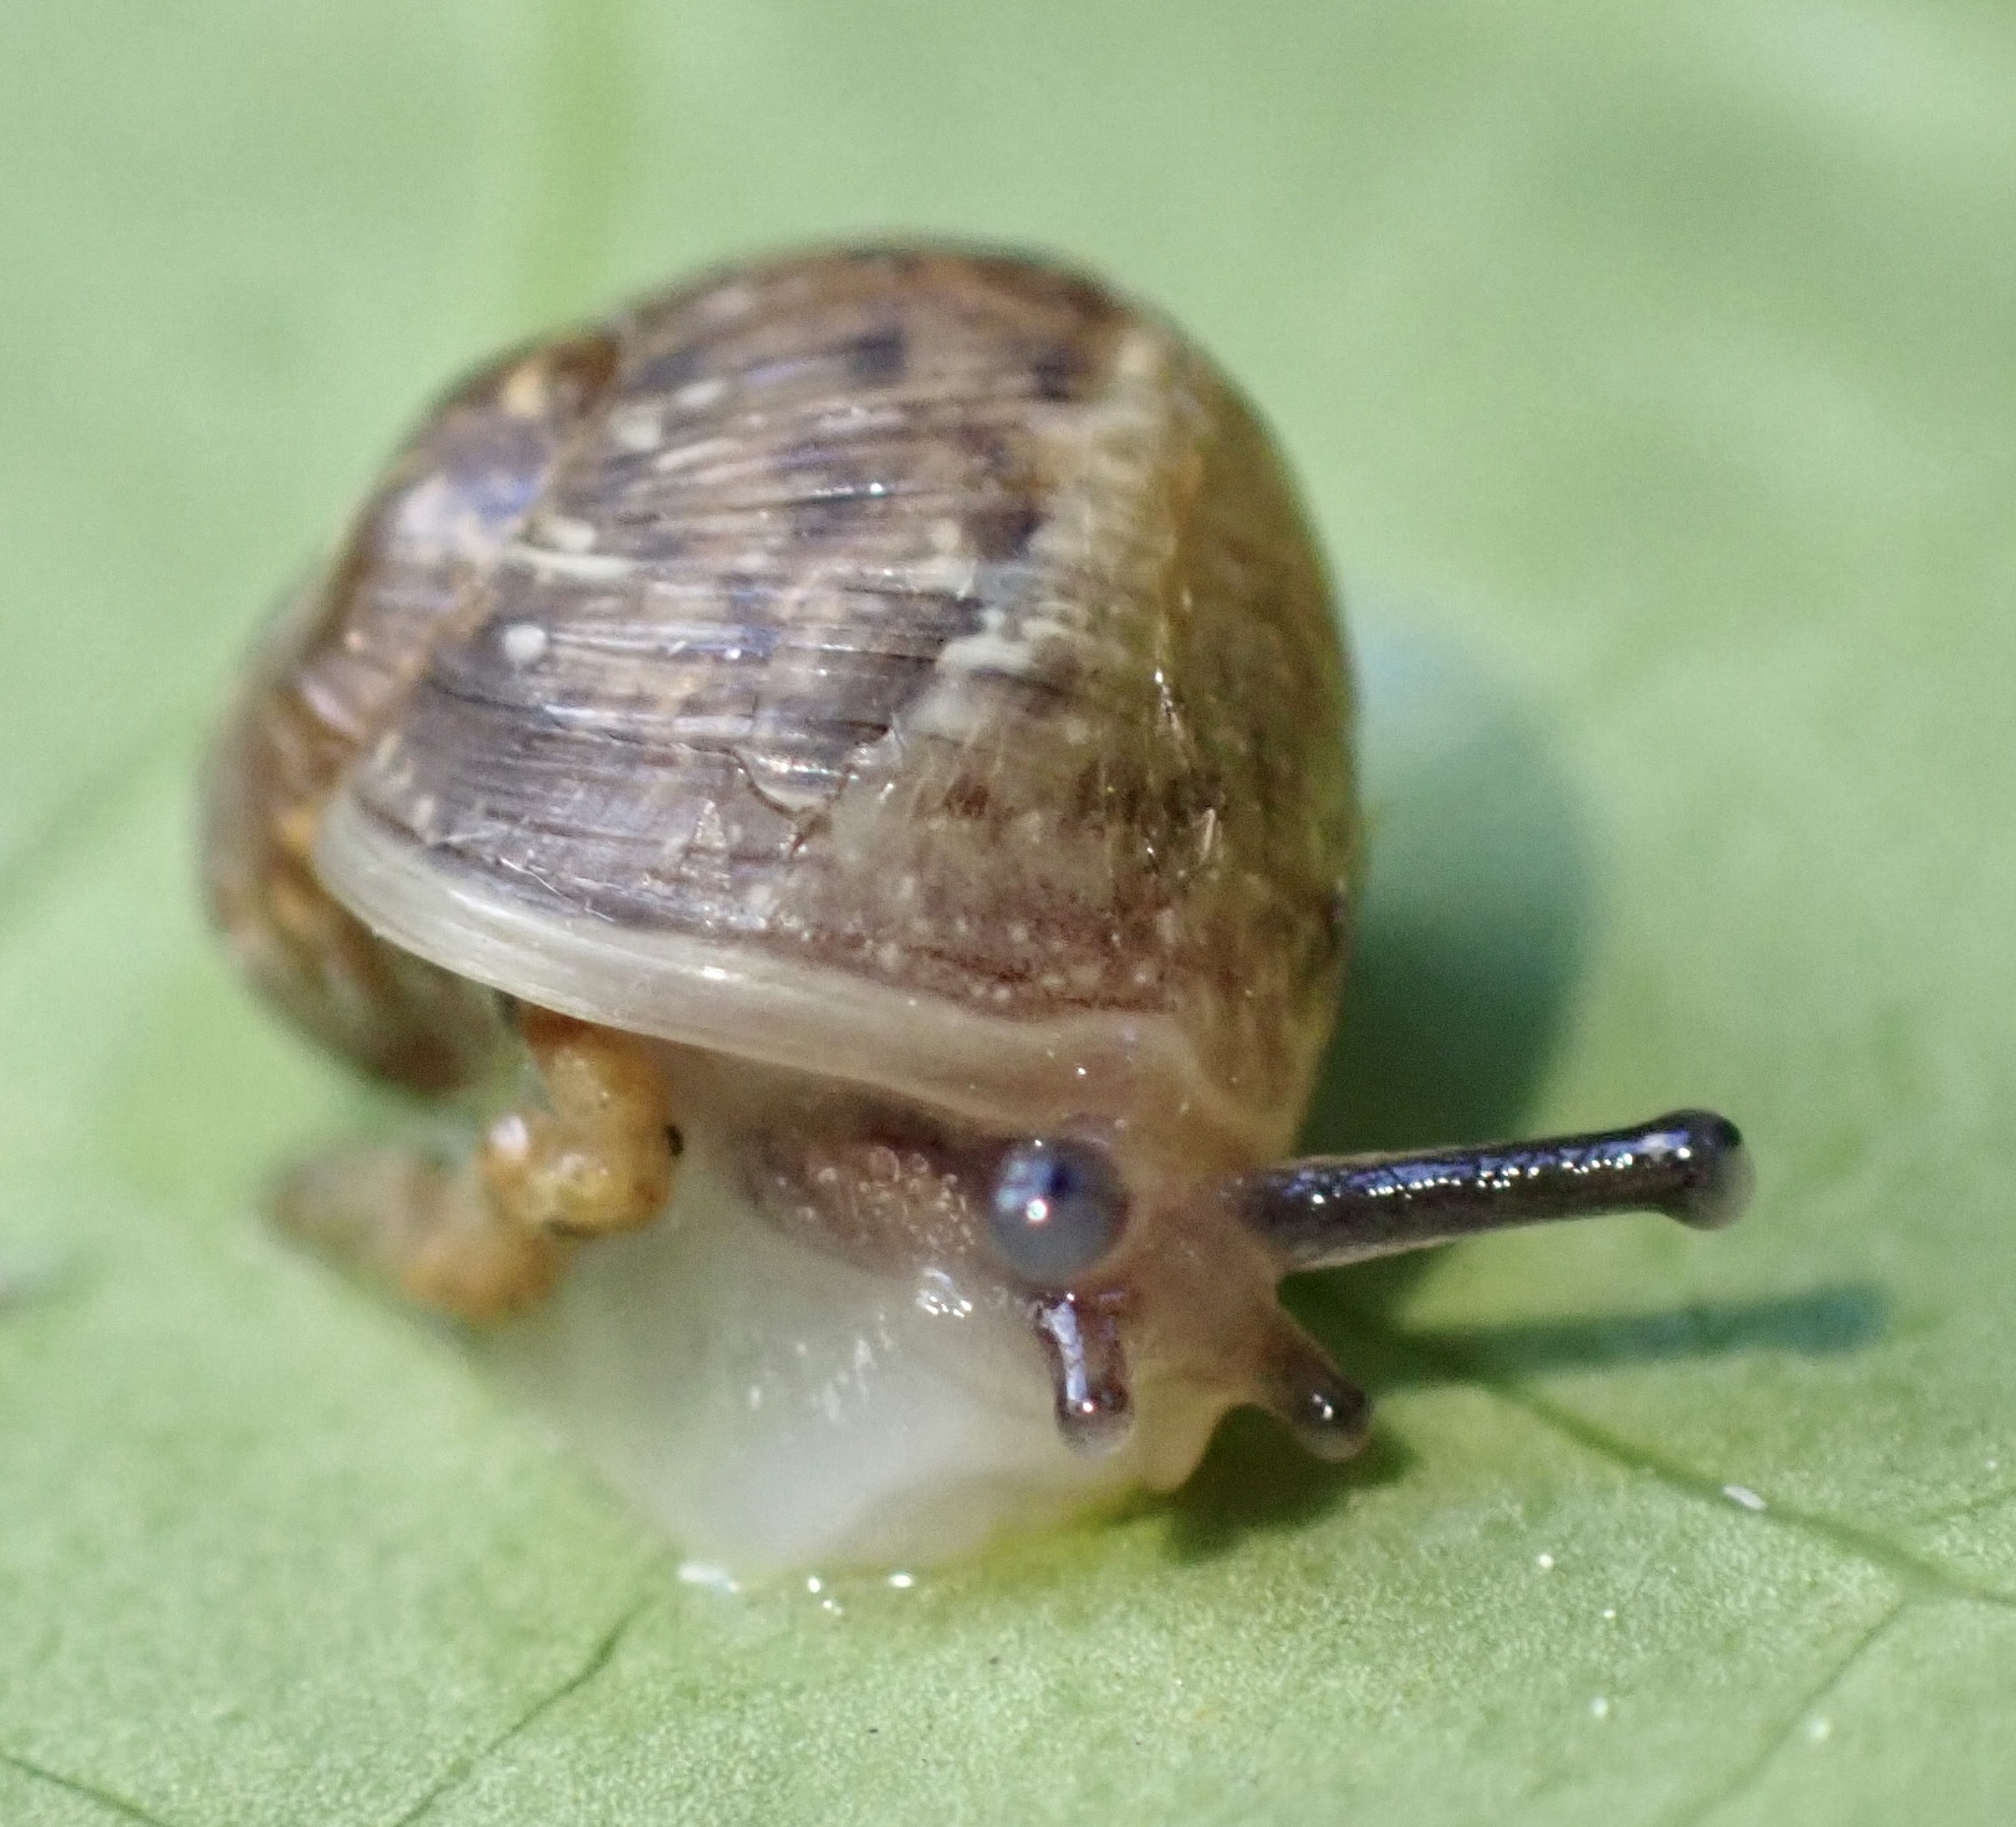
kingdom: Animalia
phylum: Mollusca
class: Gastropoda
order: Stylommatophora
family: Helicidae
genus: Cornu
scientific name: Cornu aspersum
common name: Brown garden snail
